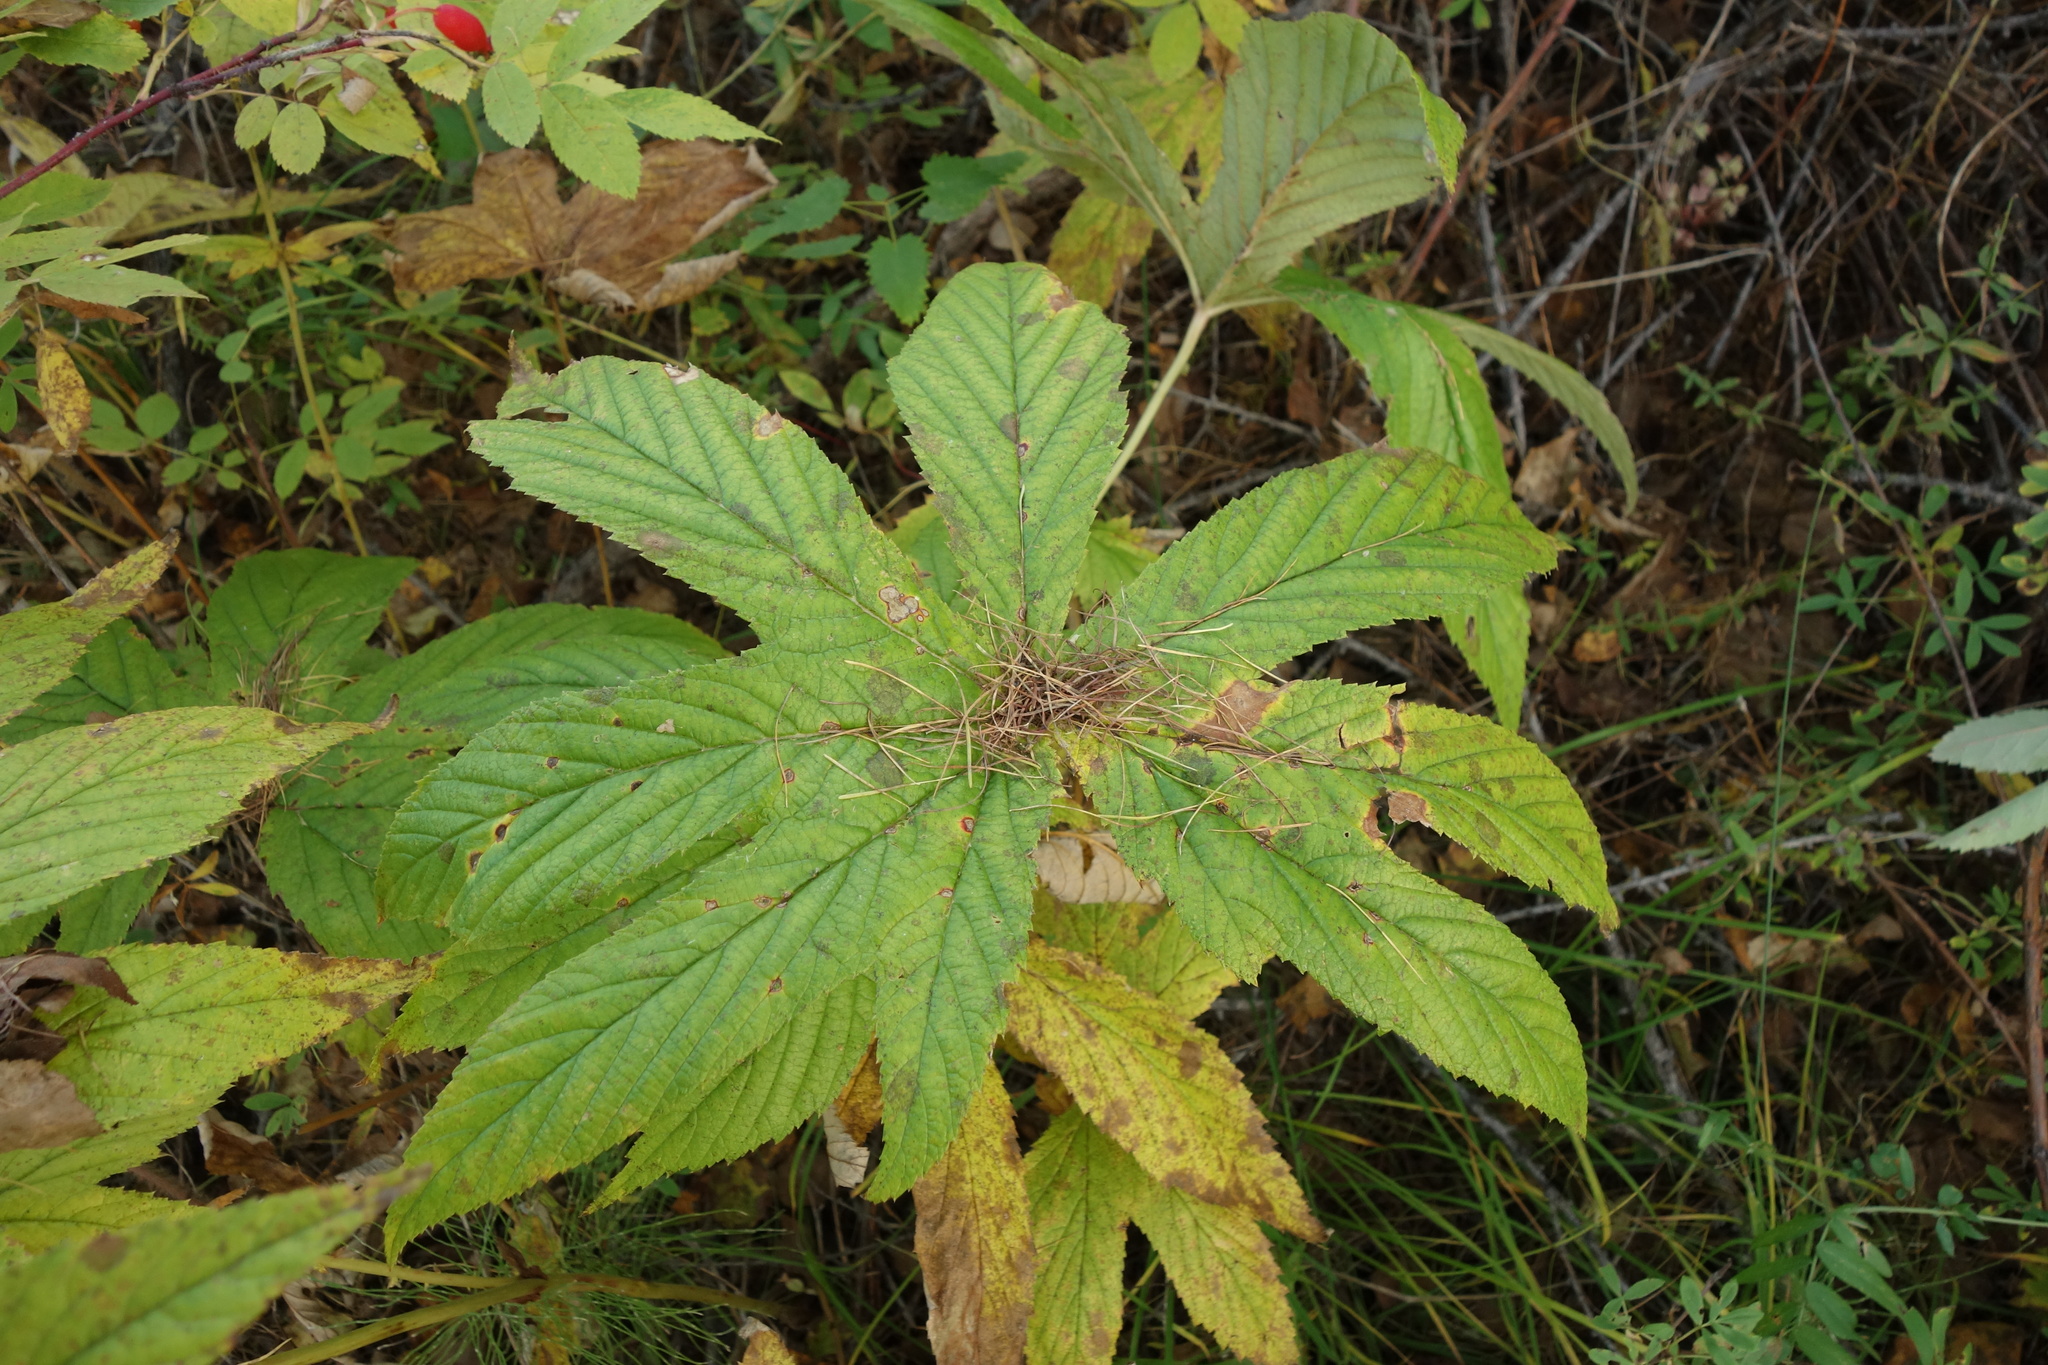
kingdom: Plantae
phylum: Tracheophyta
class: Magnoliopsida
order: Rosales
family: Rosaceae
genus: Filipendula
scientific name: Filipendula digitata
